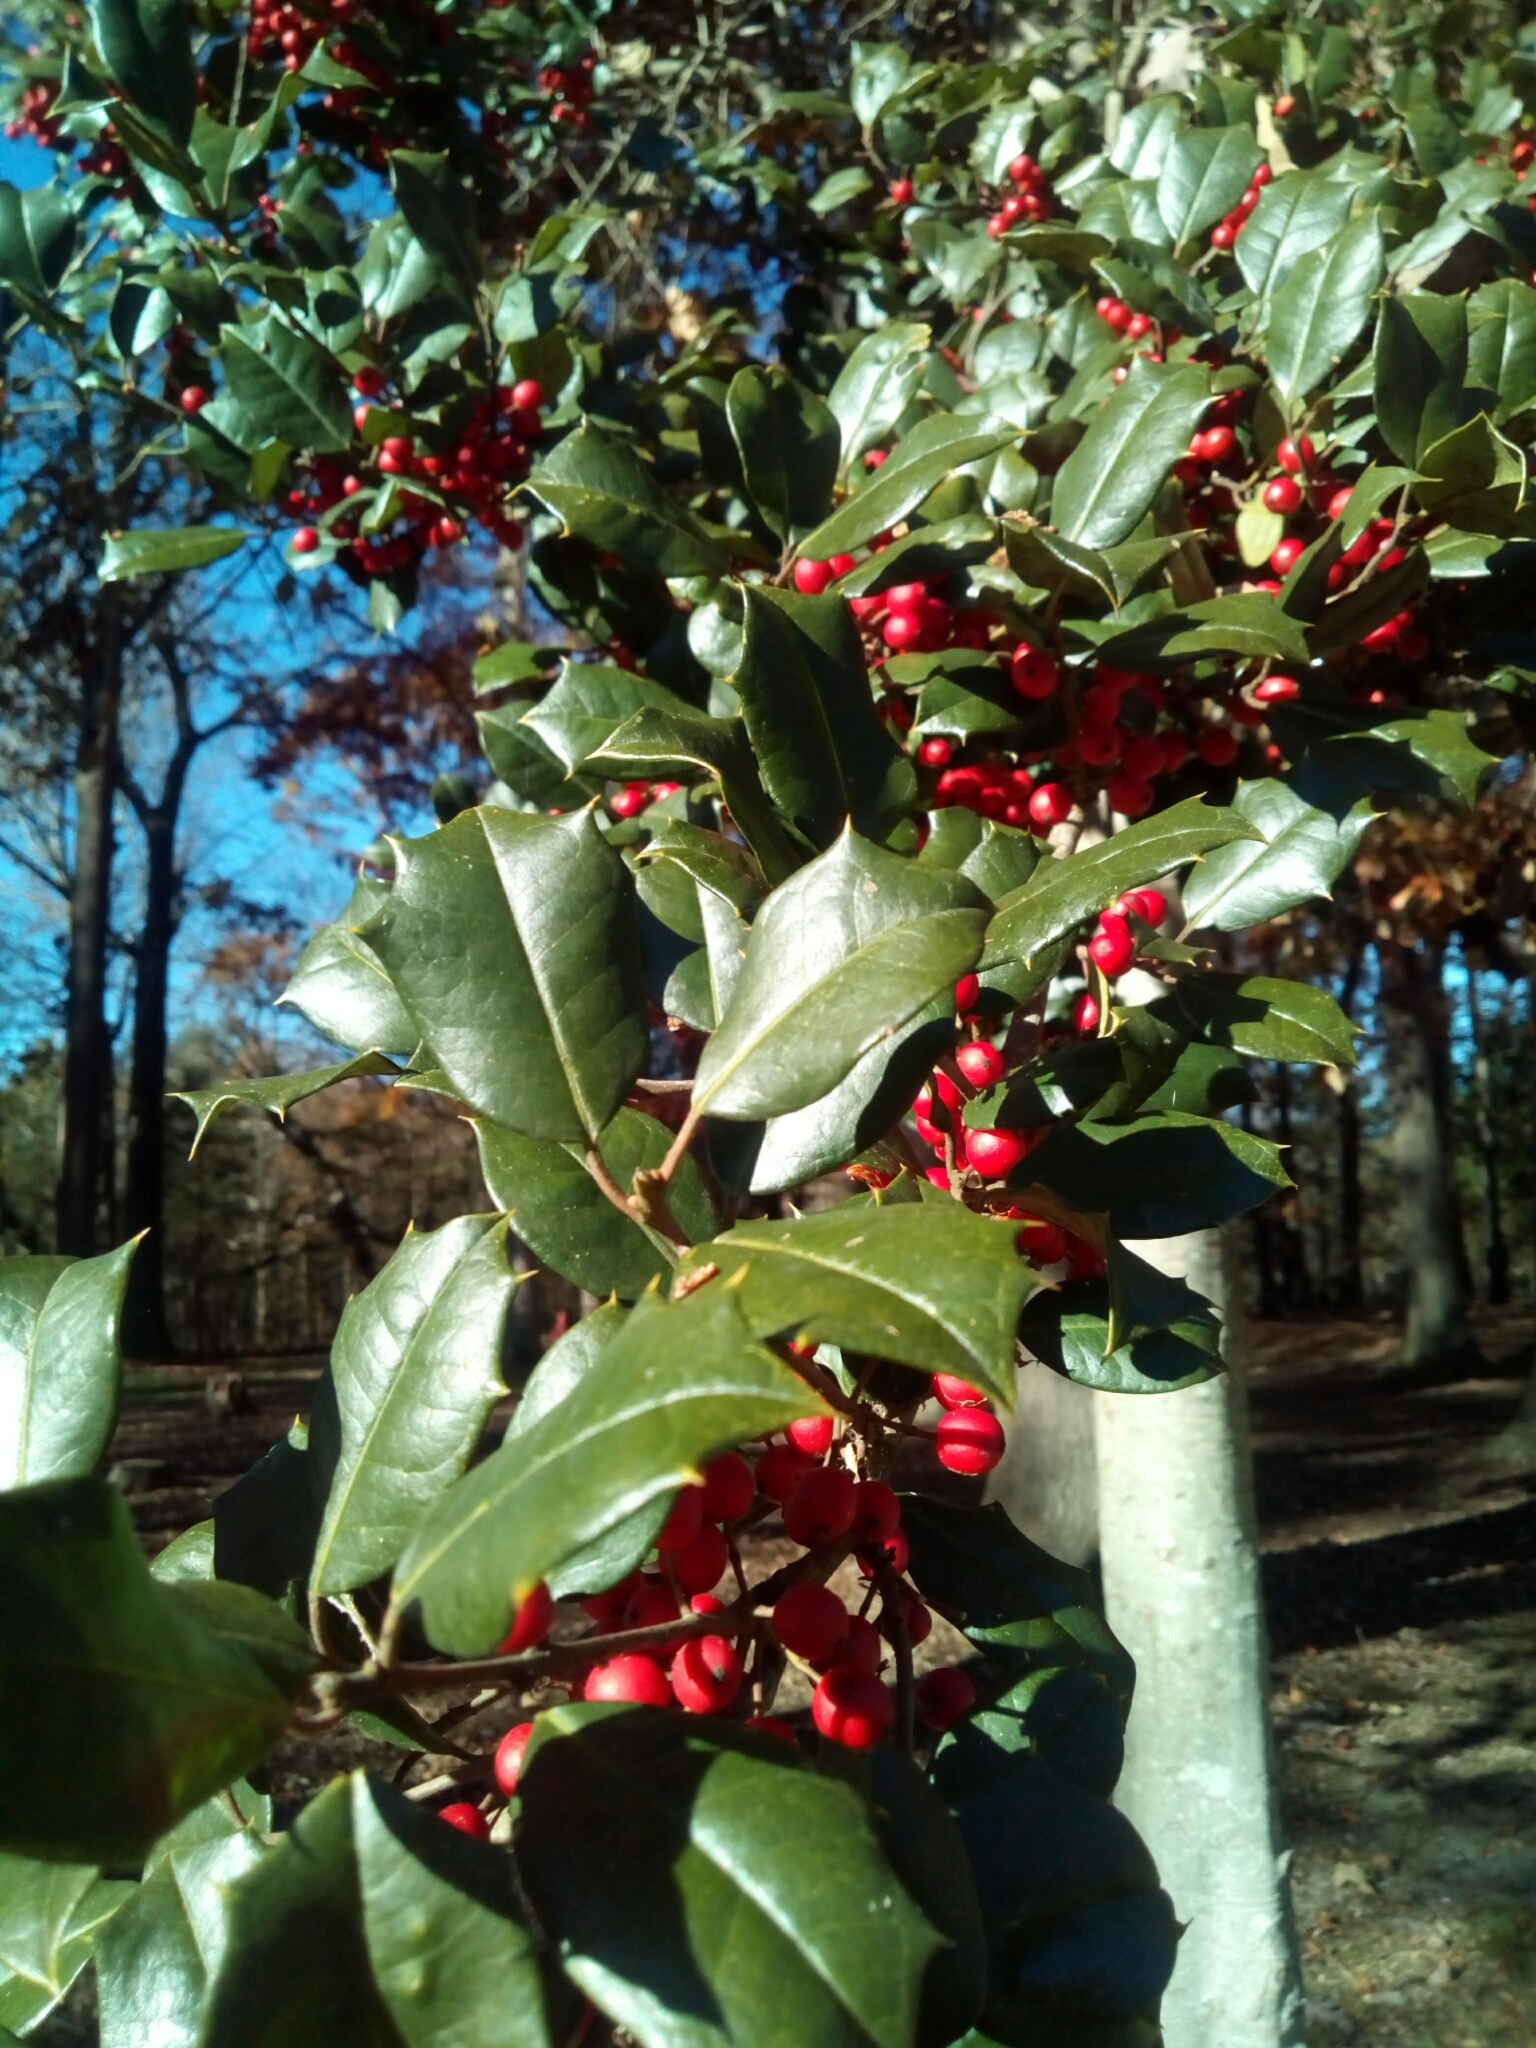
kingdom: Plantae
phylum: Tracheophyta
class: Magnoliopsida
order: Aquifoliales
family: Aquifoliaceae
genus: Ilex
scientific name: Ilex opaca
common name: American holly
